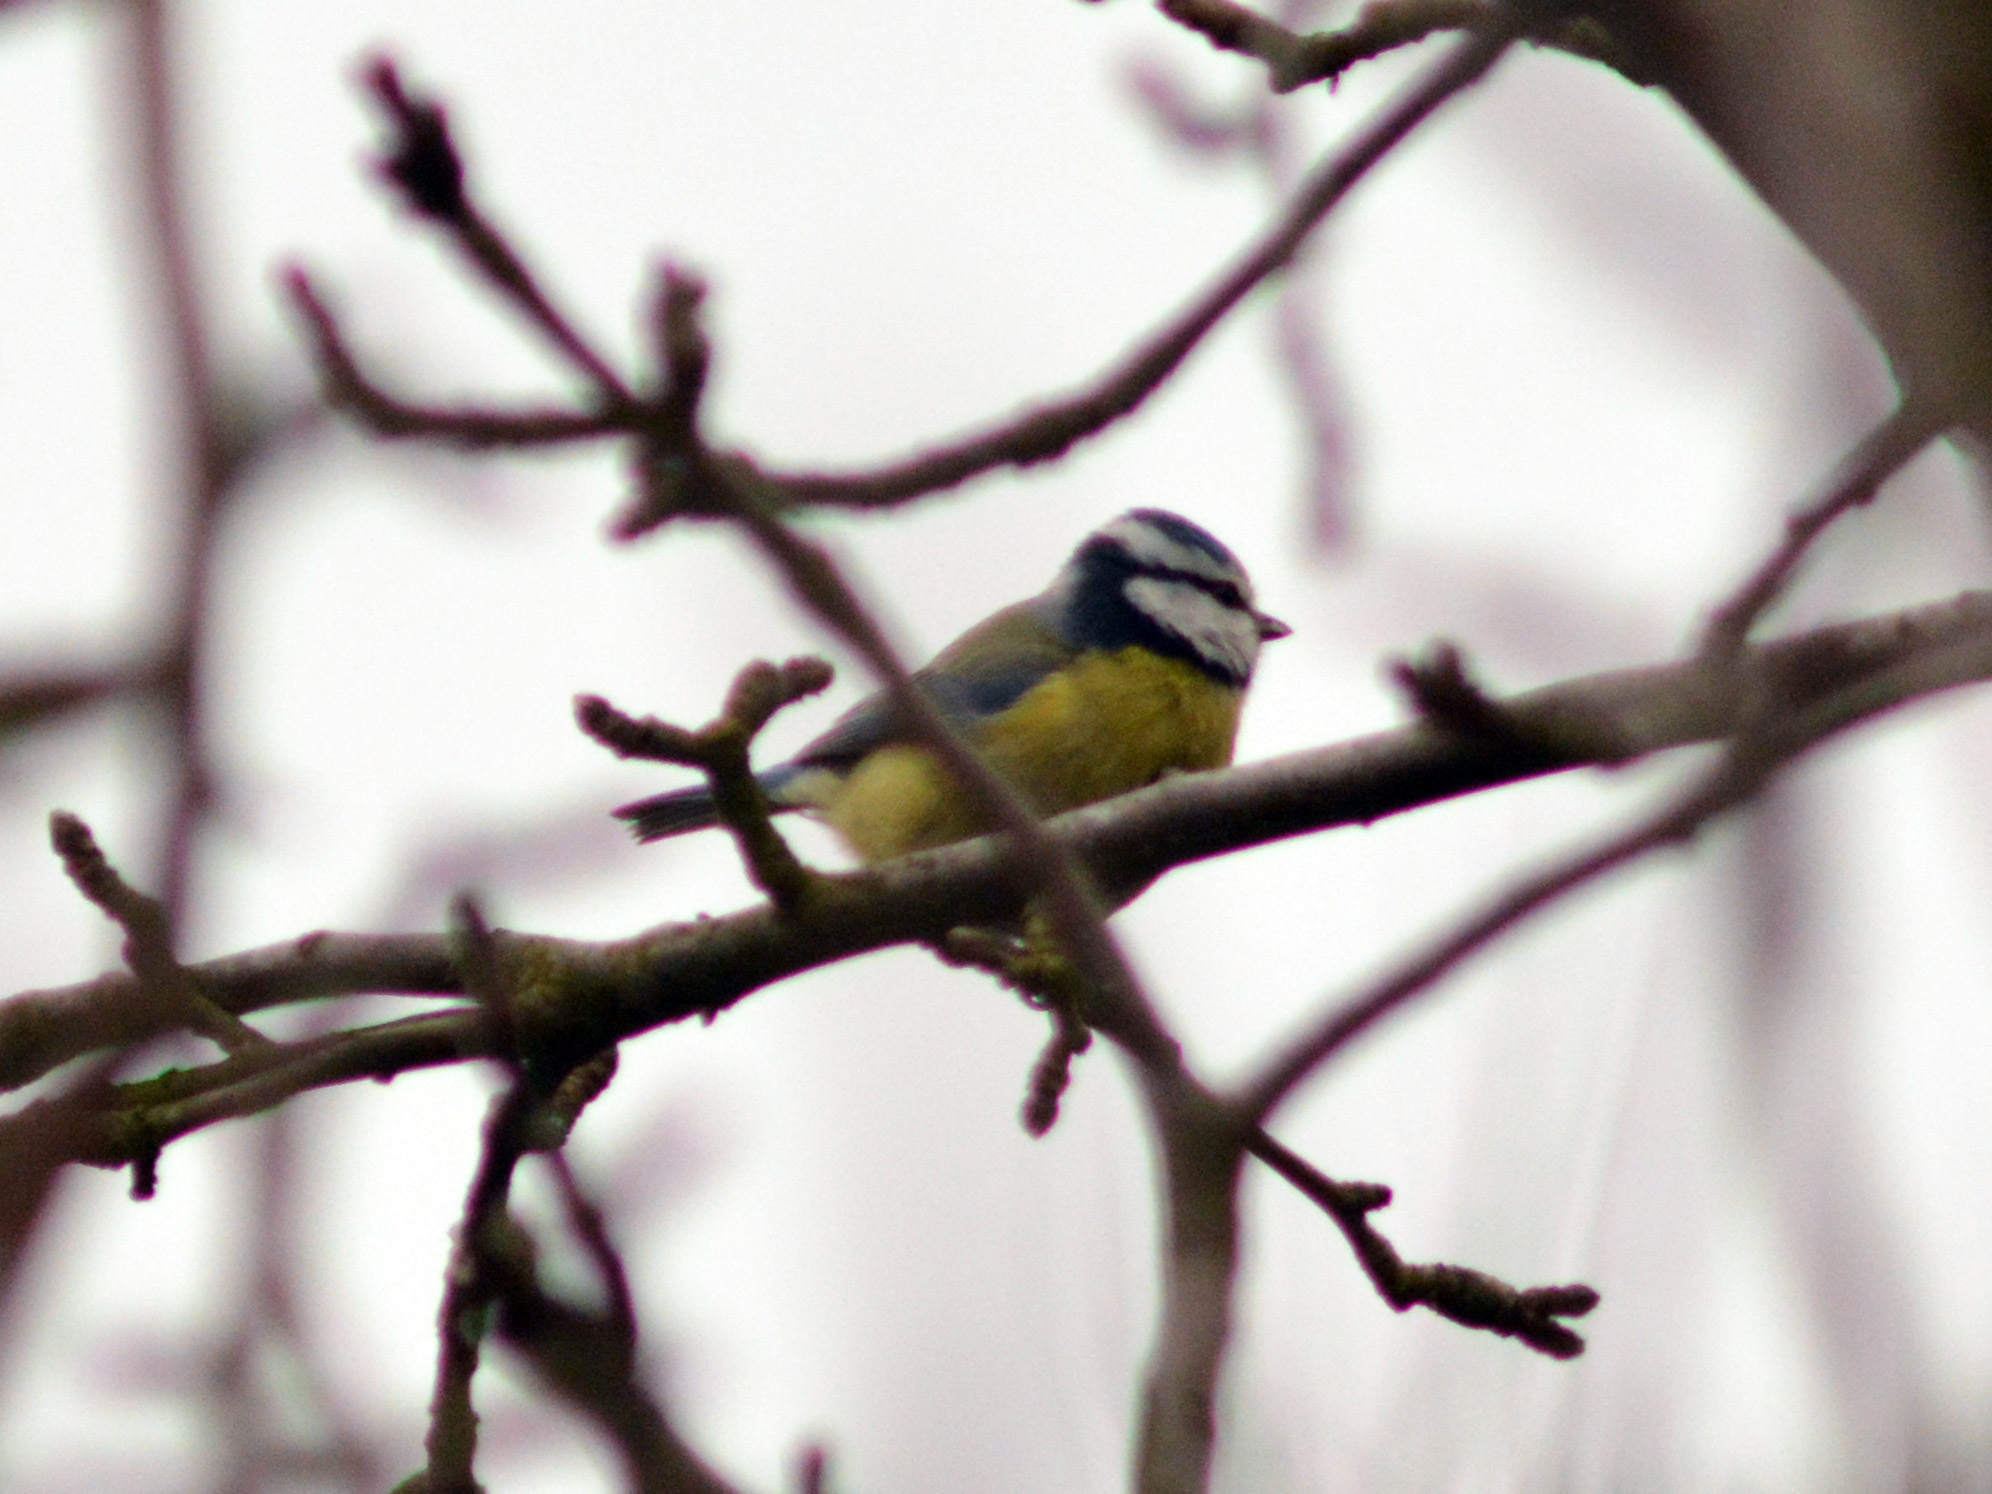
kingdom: Animalia
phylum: Chordata
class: Aves
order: Passeriformes
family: Paridae
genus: Cyanistes
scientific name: Cyanistes caeruleus
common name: Eurasian blue tit
